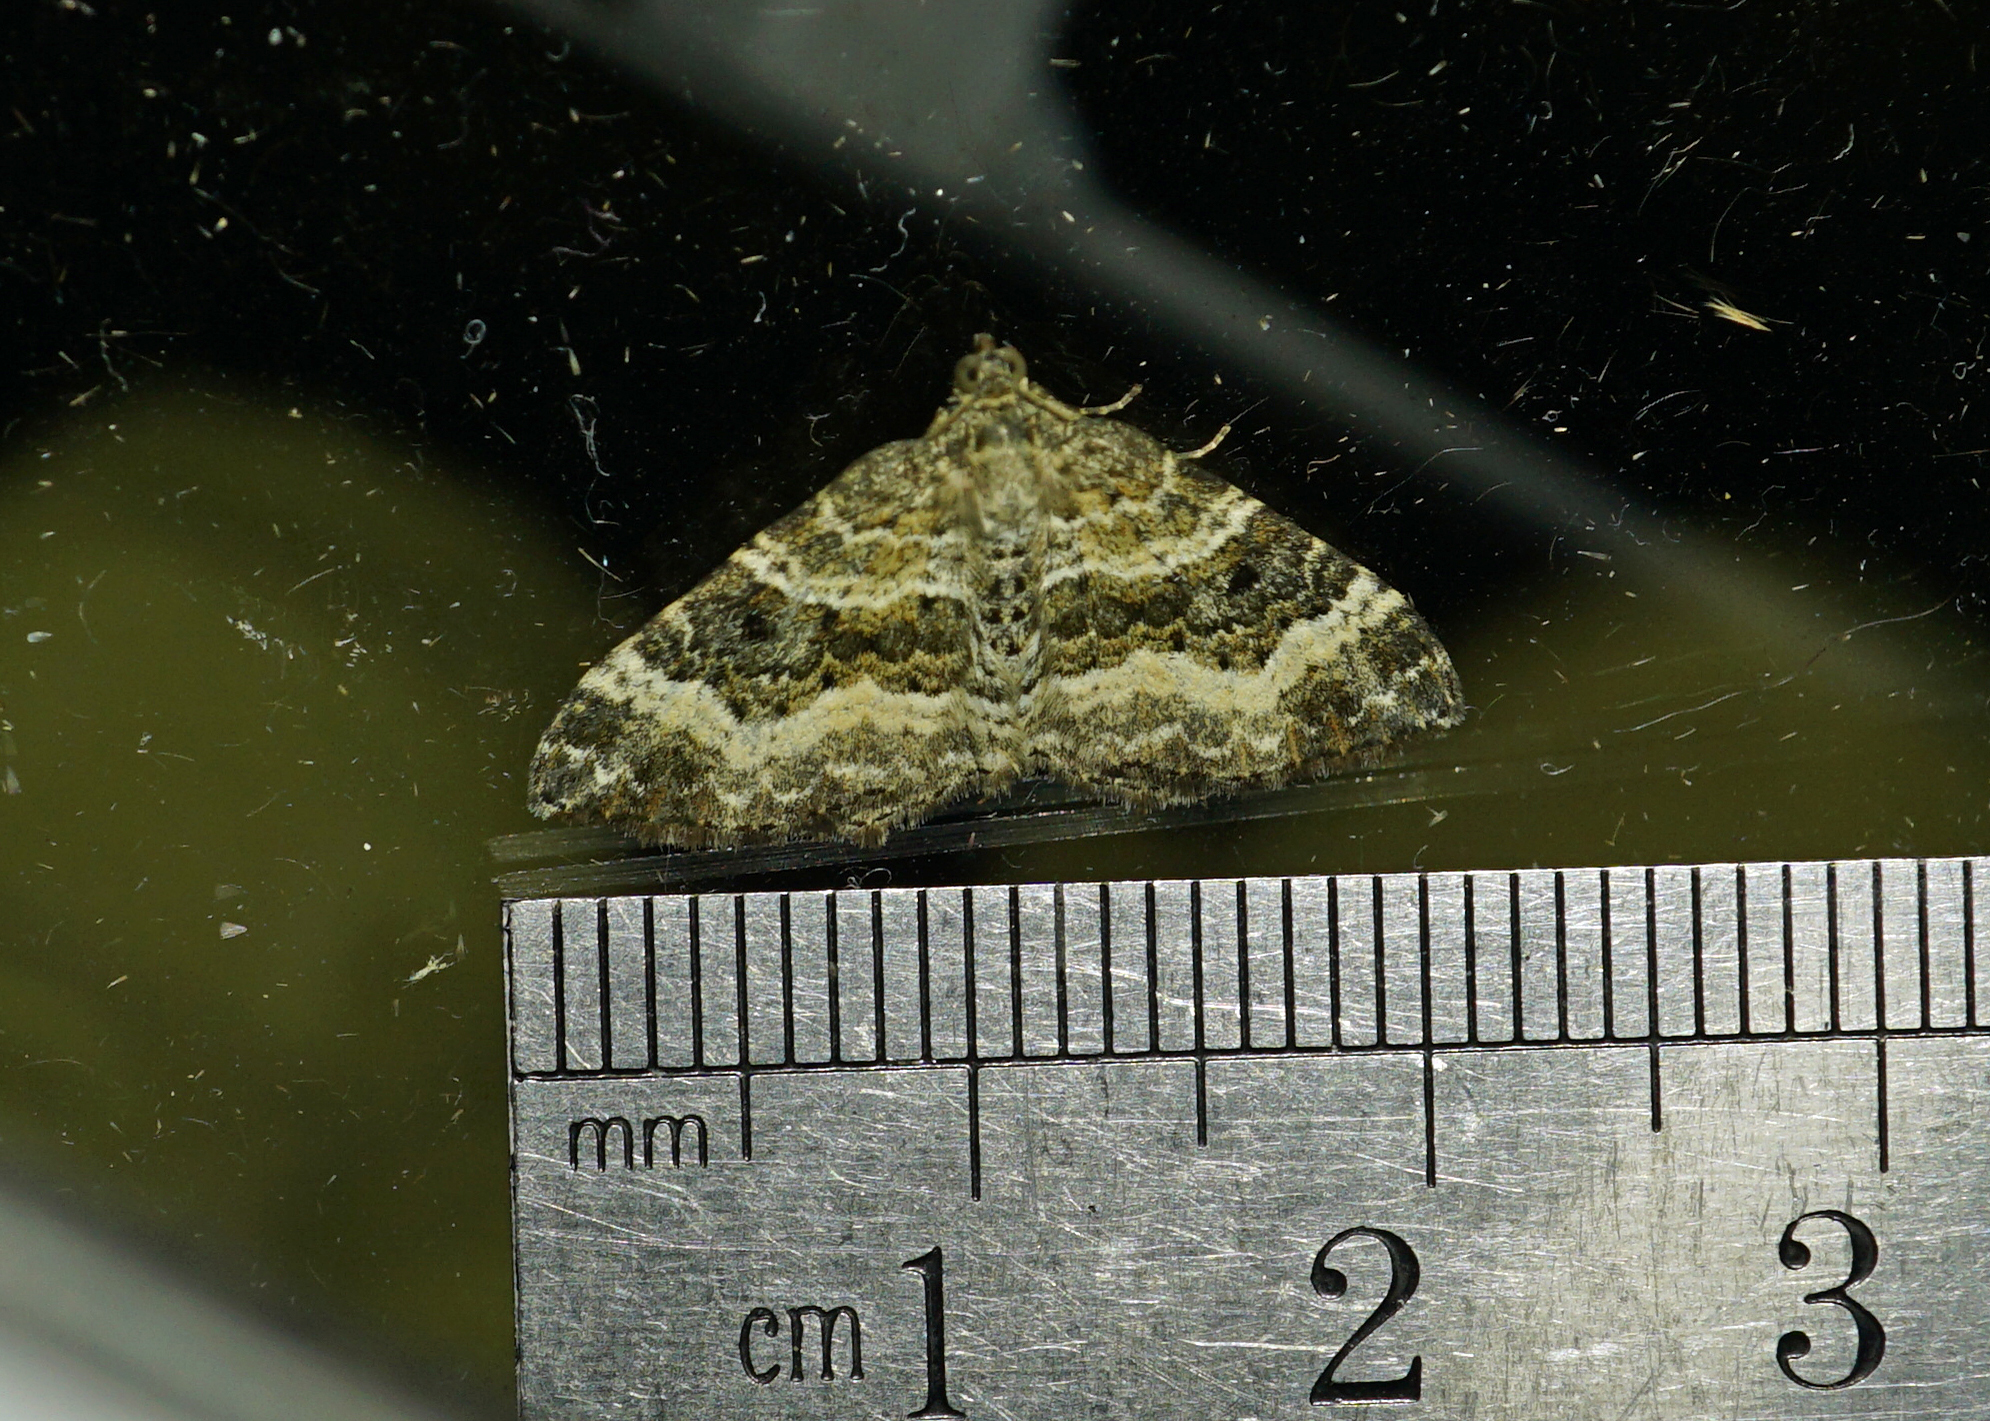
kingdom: Animalia
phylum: Arthropoda
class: Insecta
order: Lepidoptera
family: Geometridae
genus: Epirrhoe
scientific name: Epirrhoe alternata
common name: Common carpet
